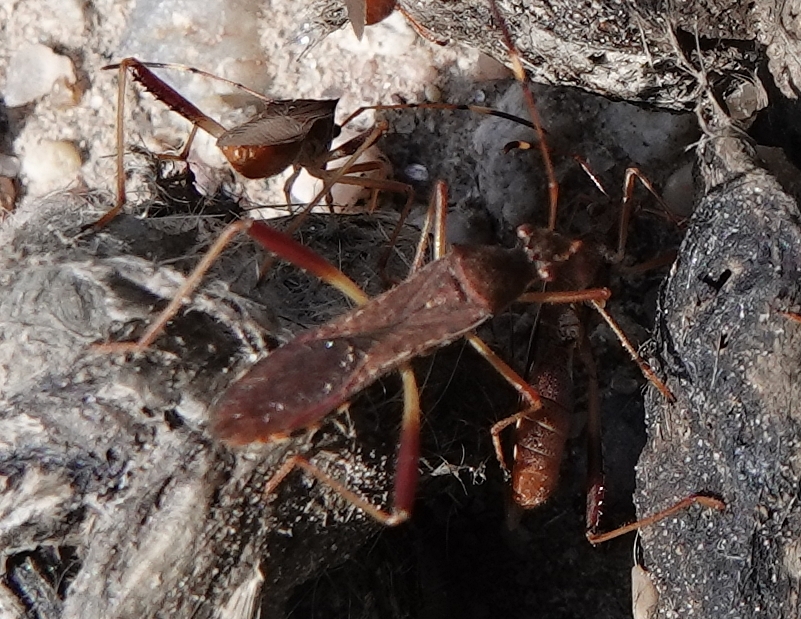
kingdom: Animalia
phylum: Arthropoda
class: Insecta
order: Hemiptera
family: Alydidae
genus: Megalotomus
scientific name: Megalotomus quinquespinosus
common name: Lupine bug
